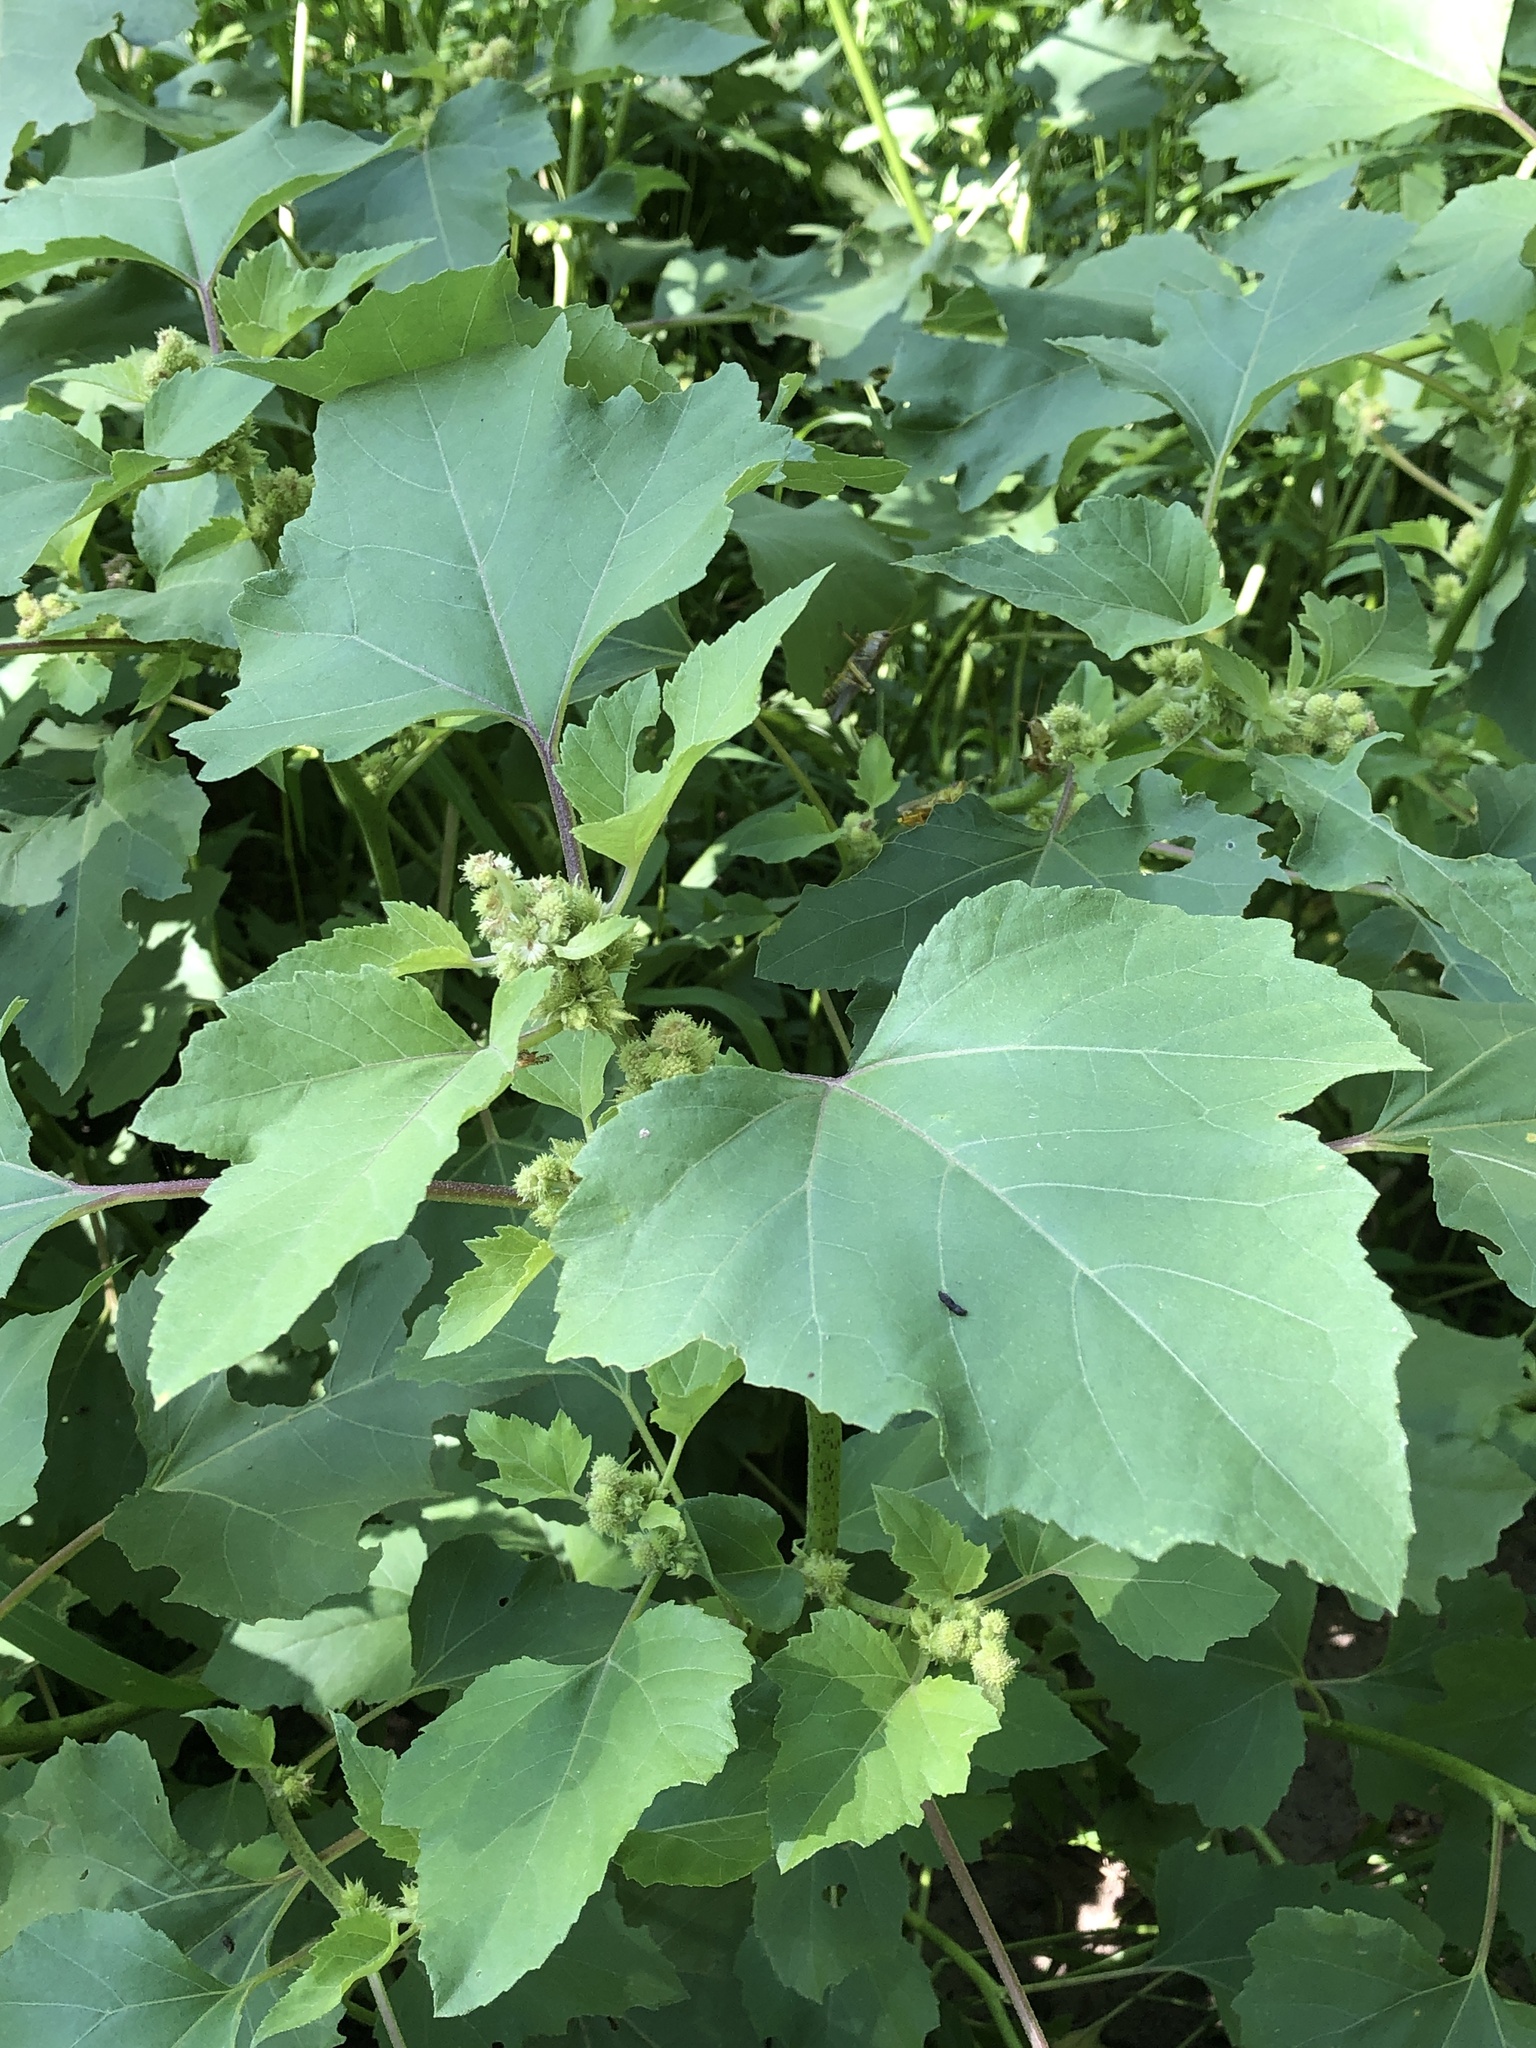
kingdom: Plantae
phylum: Tracheophyta
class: Magnoliopsida
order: Asterales
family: Asteraceae
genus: Xanthium
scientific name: Xanthium strumarium
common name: Rough cocklebur
